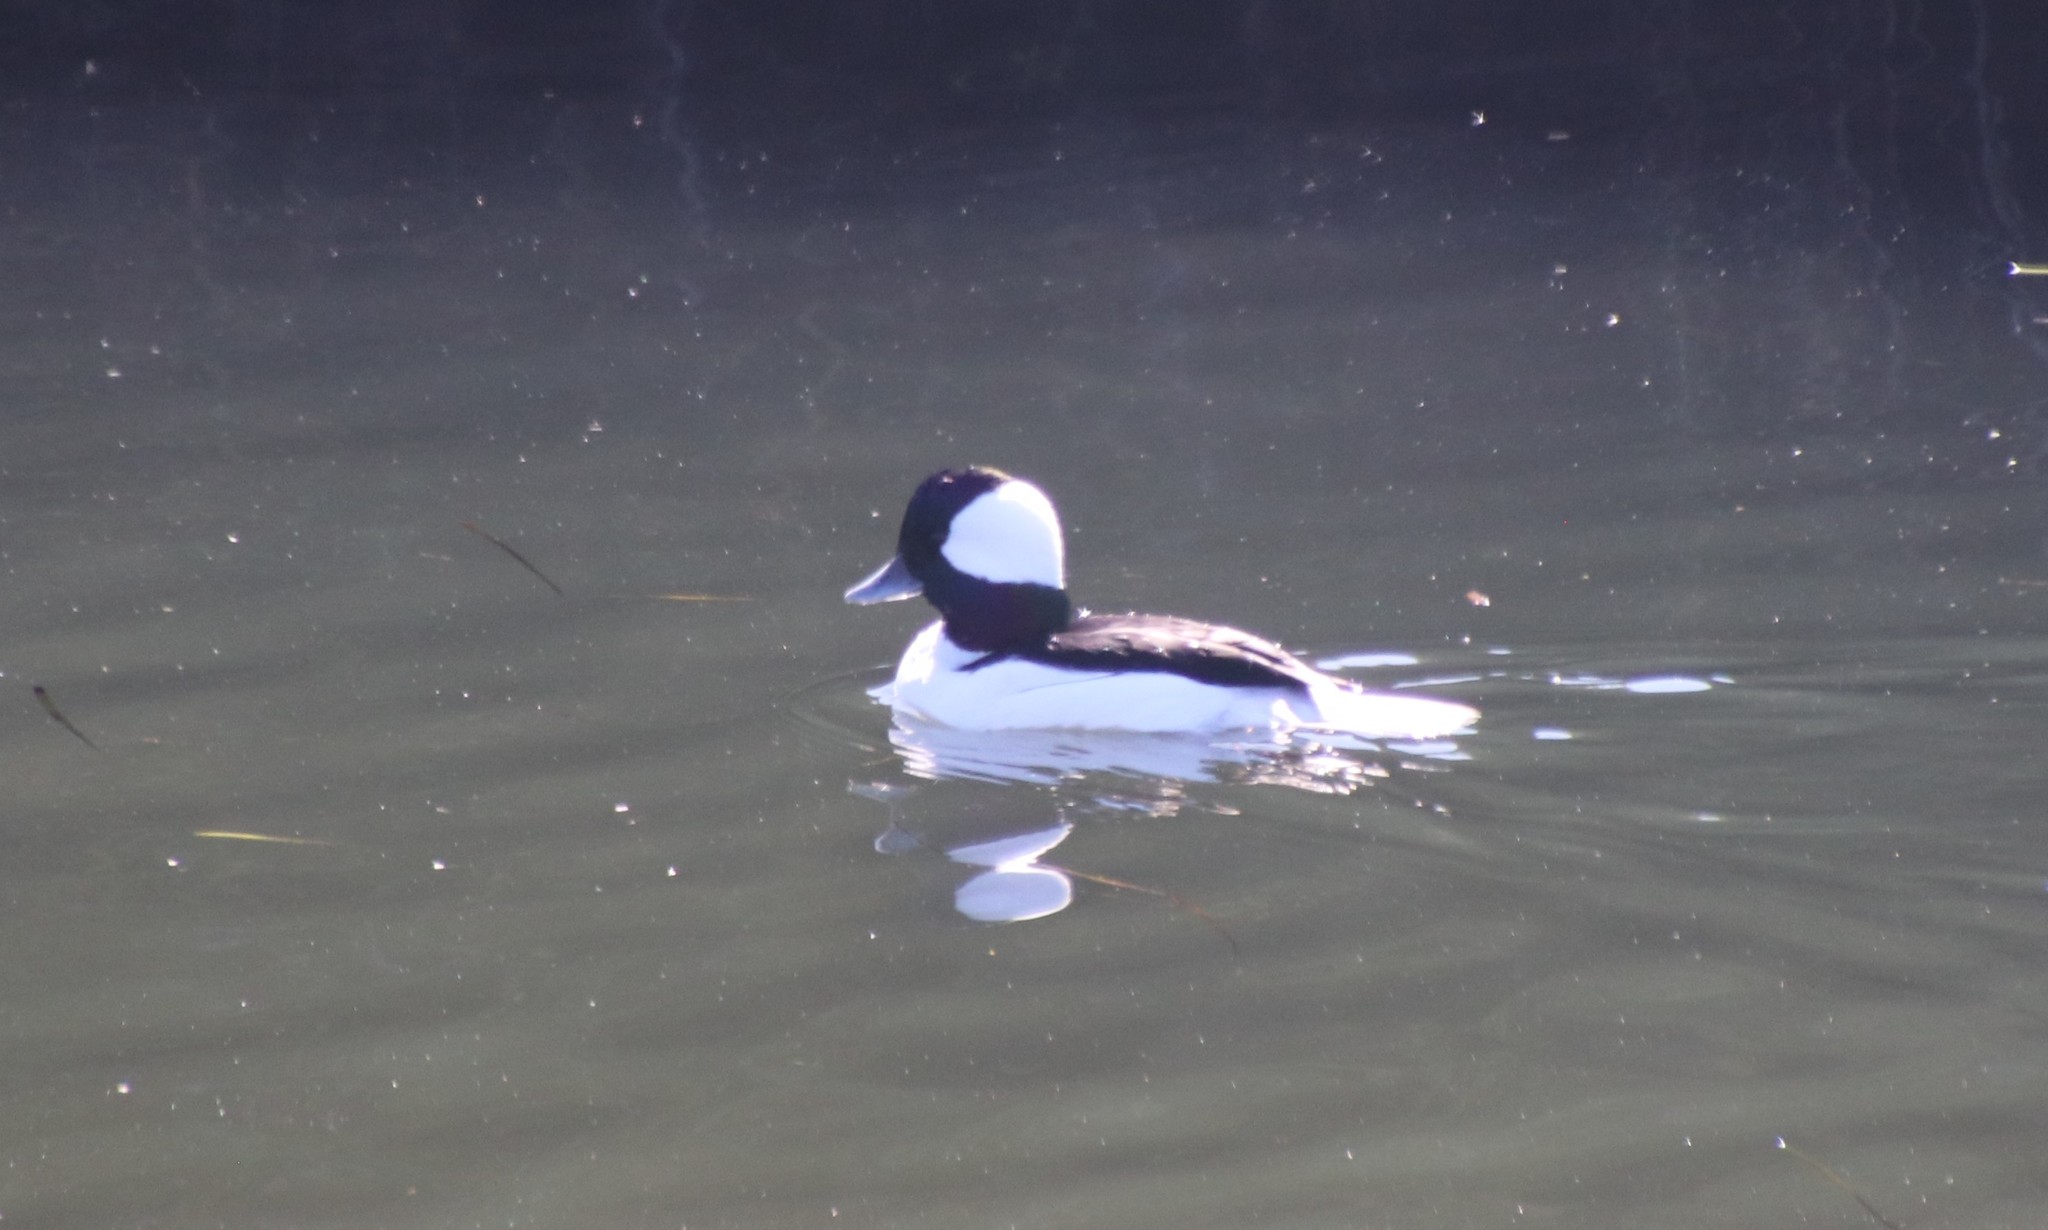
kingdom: Animalia
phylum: Chordata
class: Aves
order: Anseriformes
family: Anatidae
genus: Bucephala
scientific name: Bucephala albeola
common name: Bufflehead
